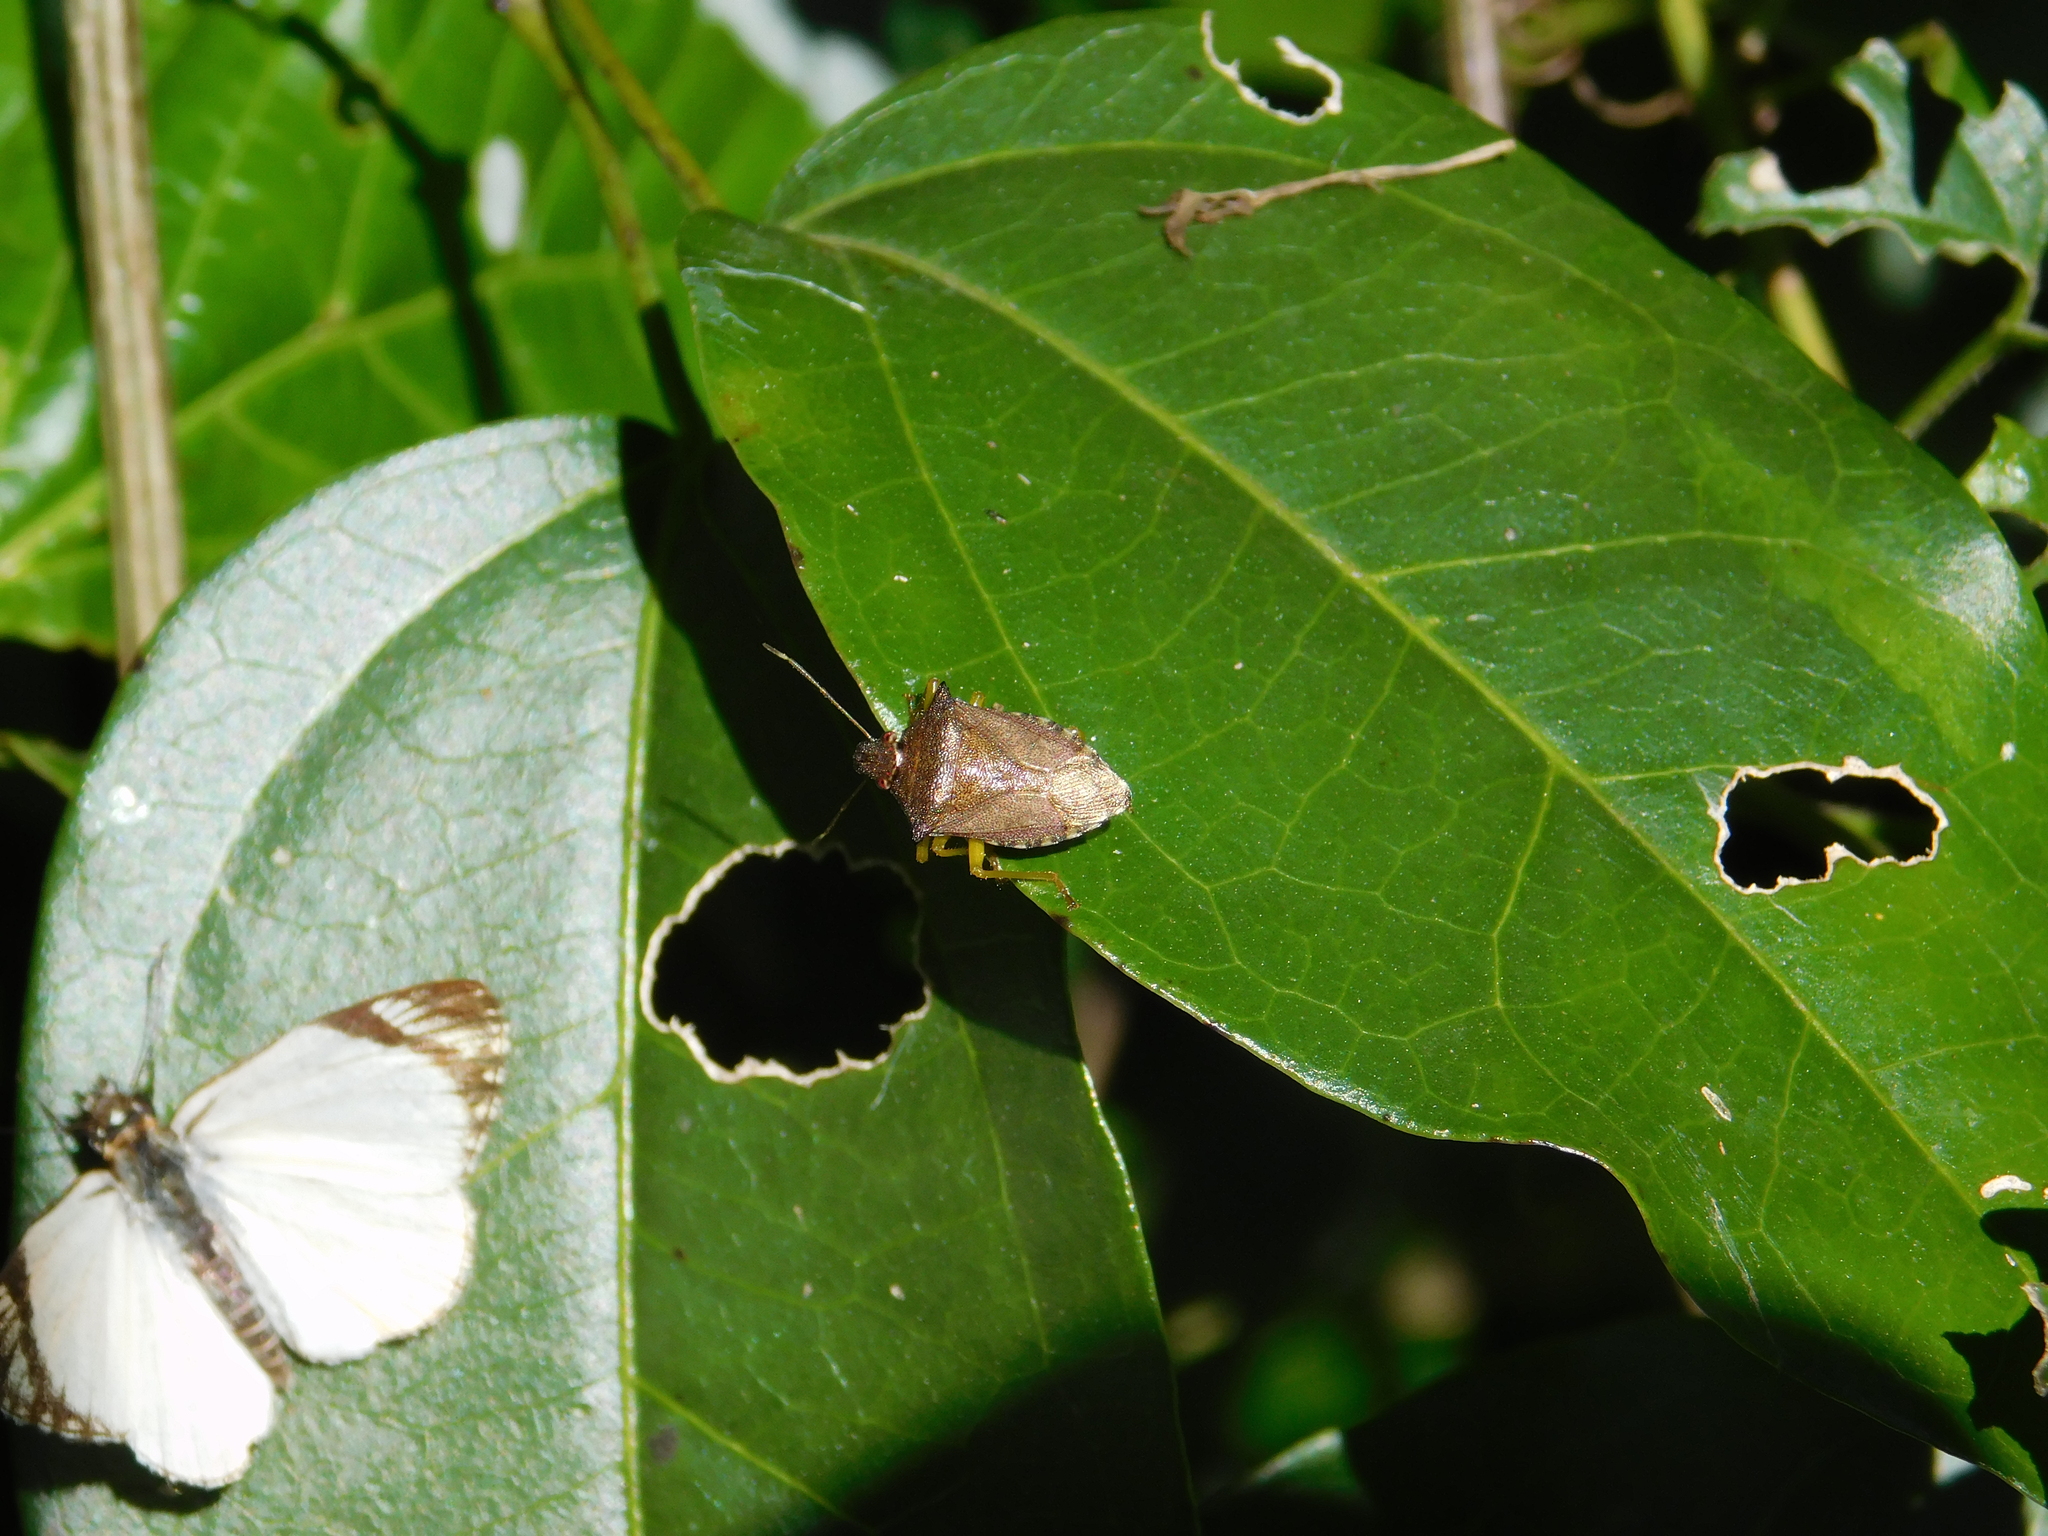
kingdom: Animalia
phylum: Arthropoda
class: Insecta
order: Hemiptera
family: Pentatomidae
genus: Podisus
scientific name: Podisus fuscescens
